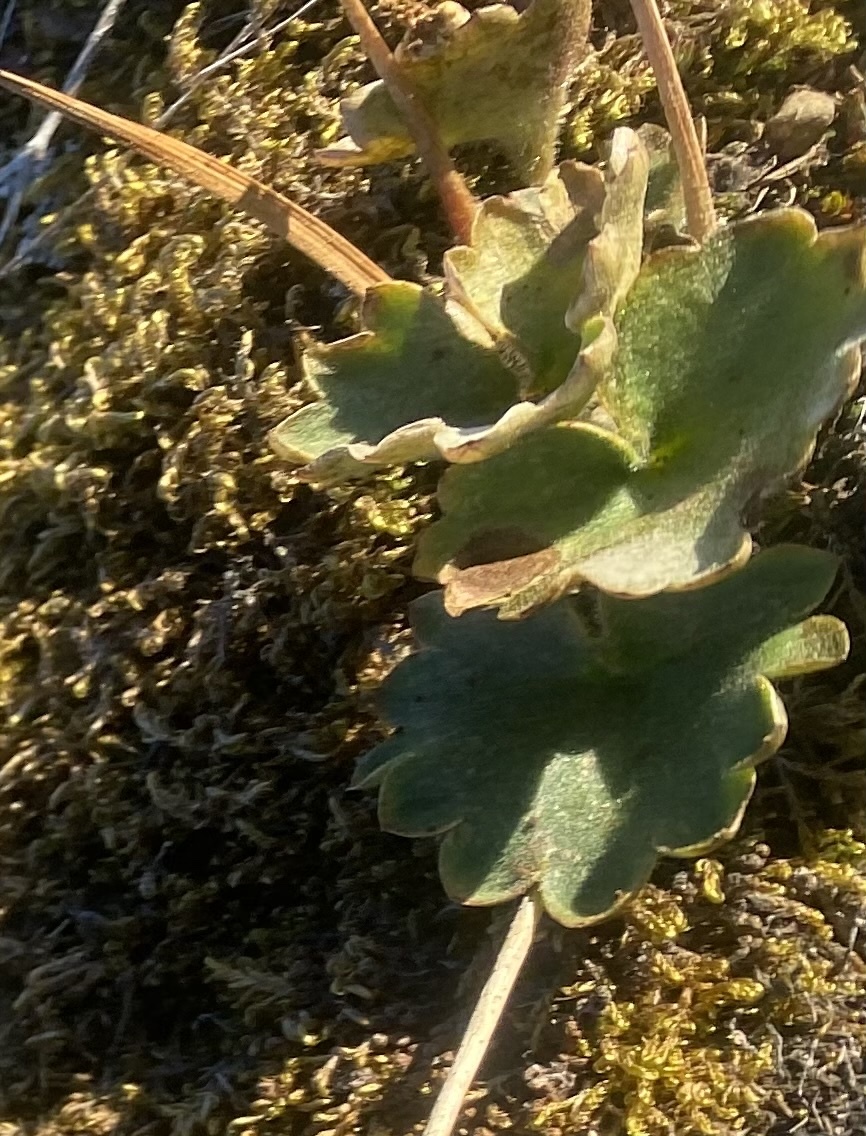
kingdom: Plantae
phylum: Tracheophyta
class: Magnoliopsida
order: Saxifragales
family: Saxifragaceae
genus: Micranthes
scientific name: Micranthes nelsoniana
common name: Nelson's saxifrage
